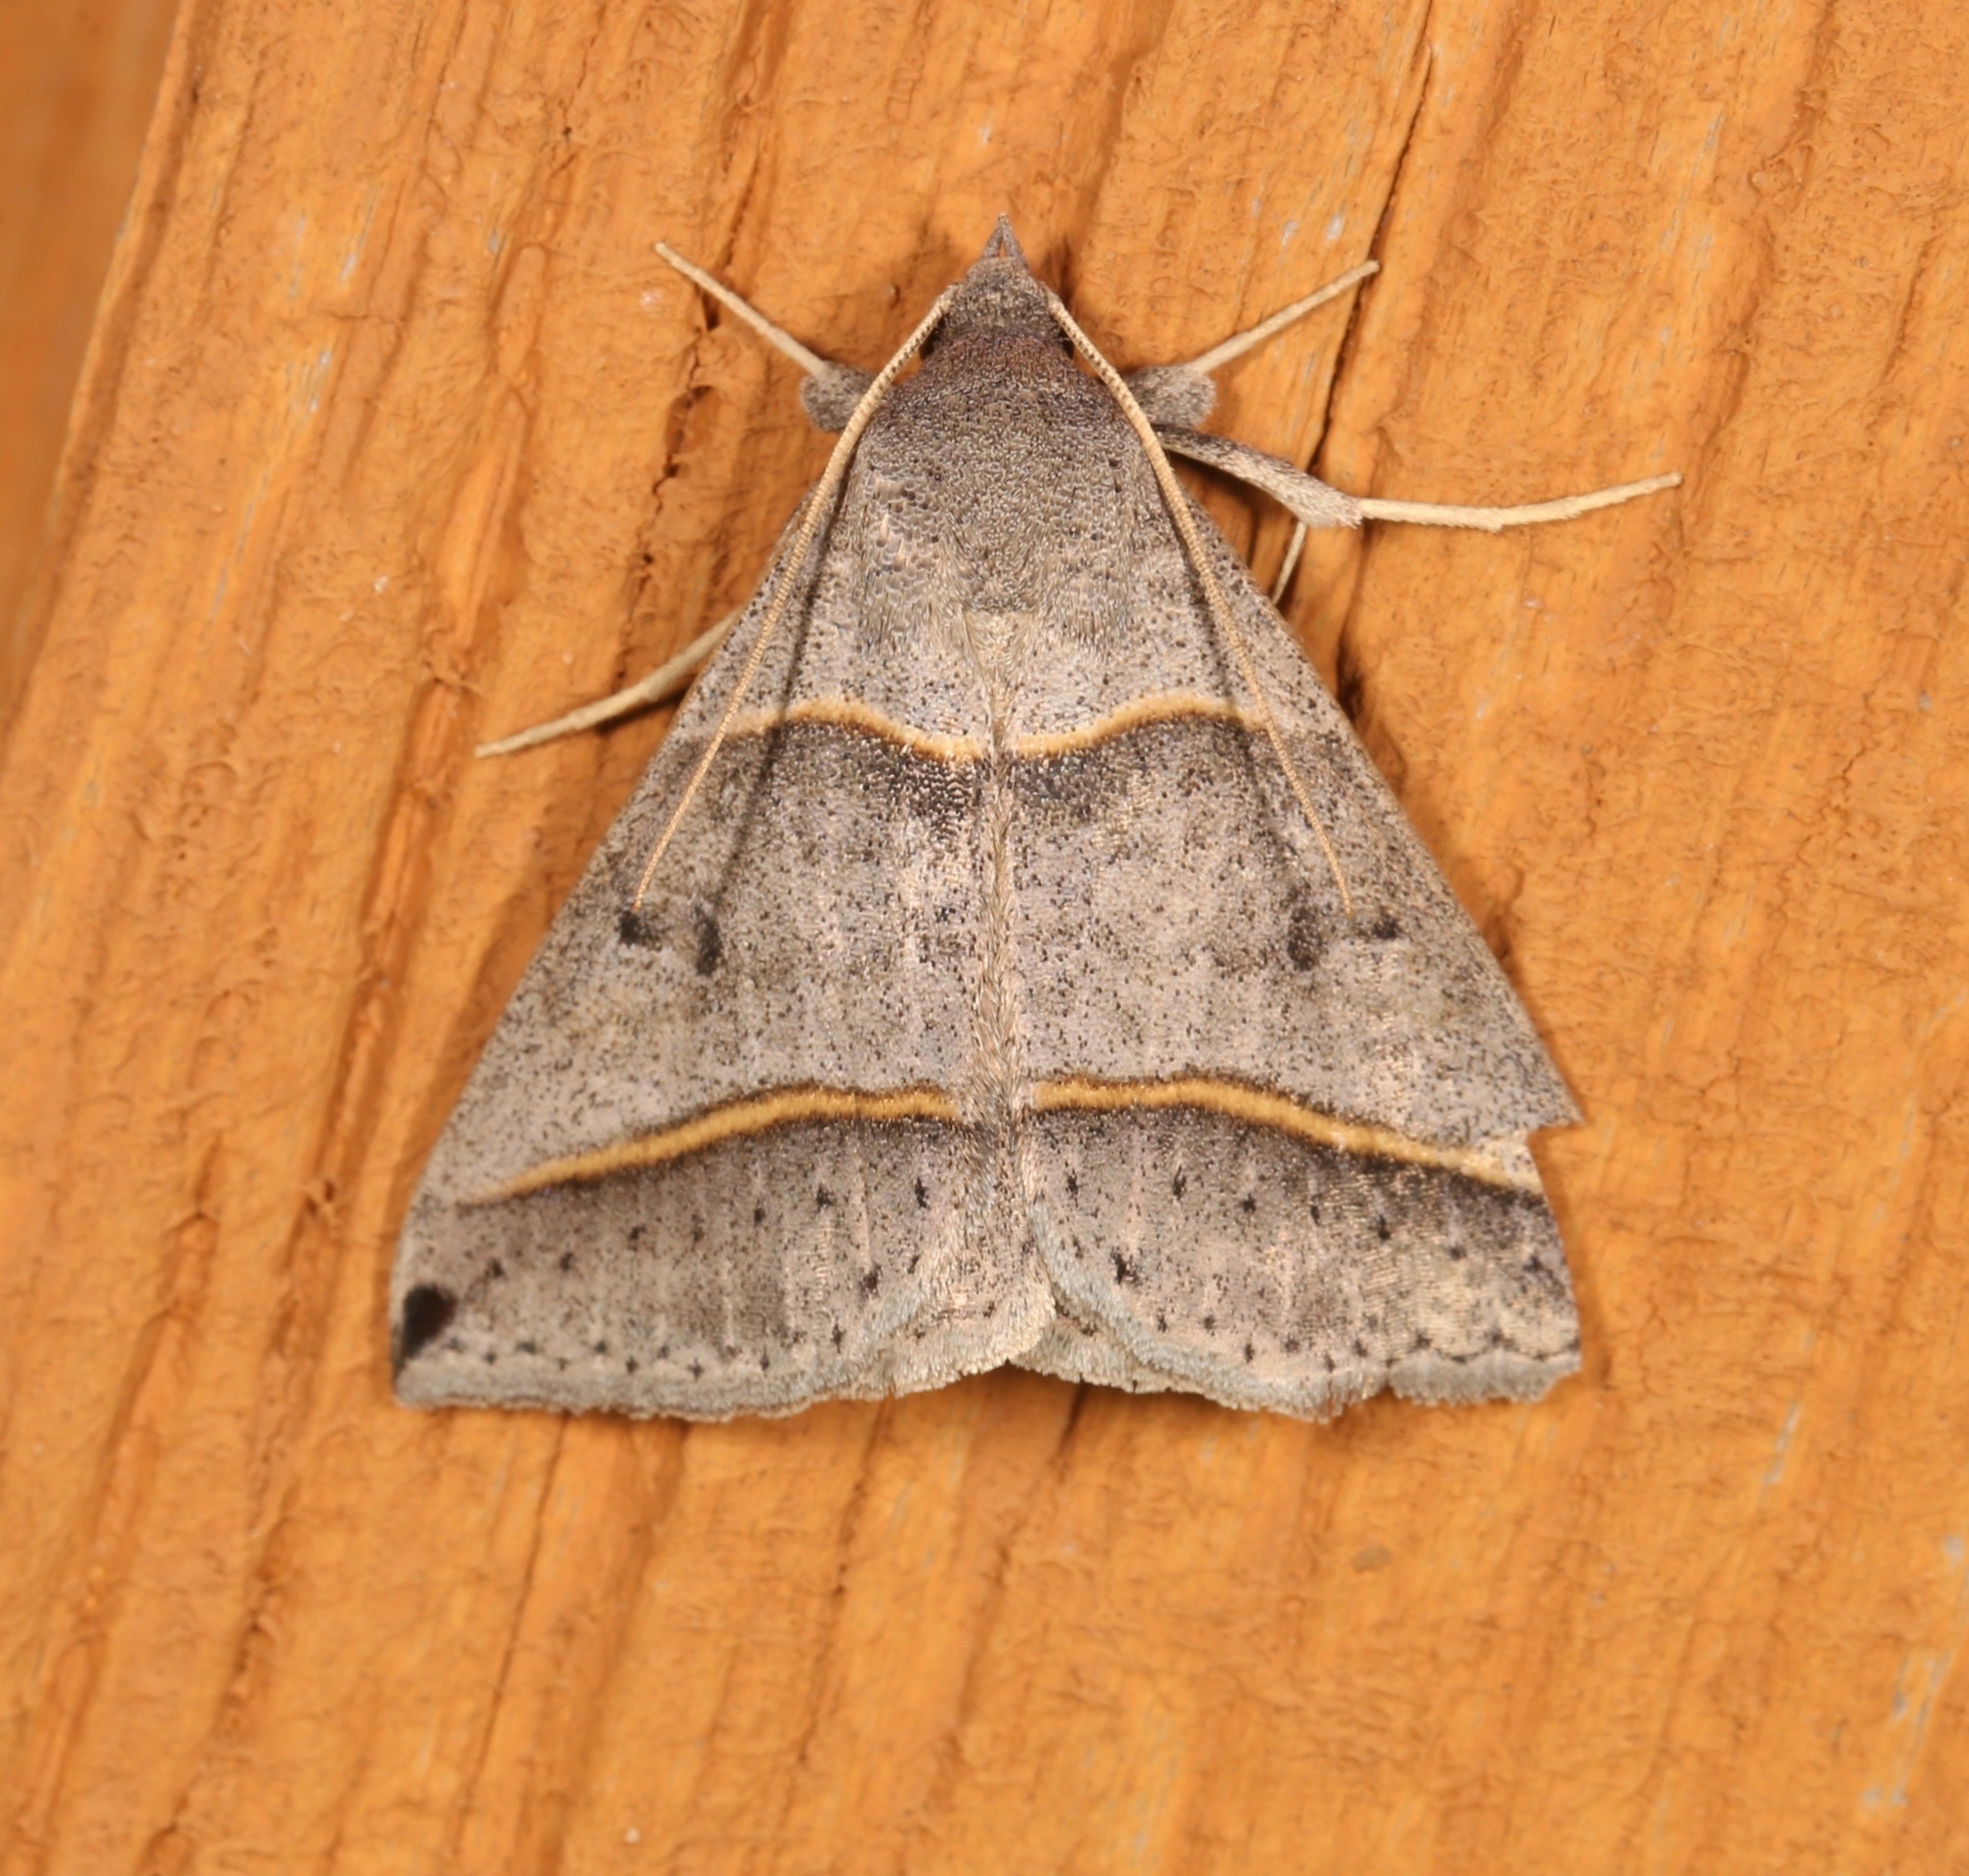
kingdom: Animalia
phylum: Arthropoda
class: Insecta
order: Lepidoptera
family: Erebidae
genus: Ptichodis
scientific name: Ptichodis vinculum
